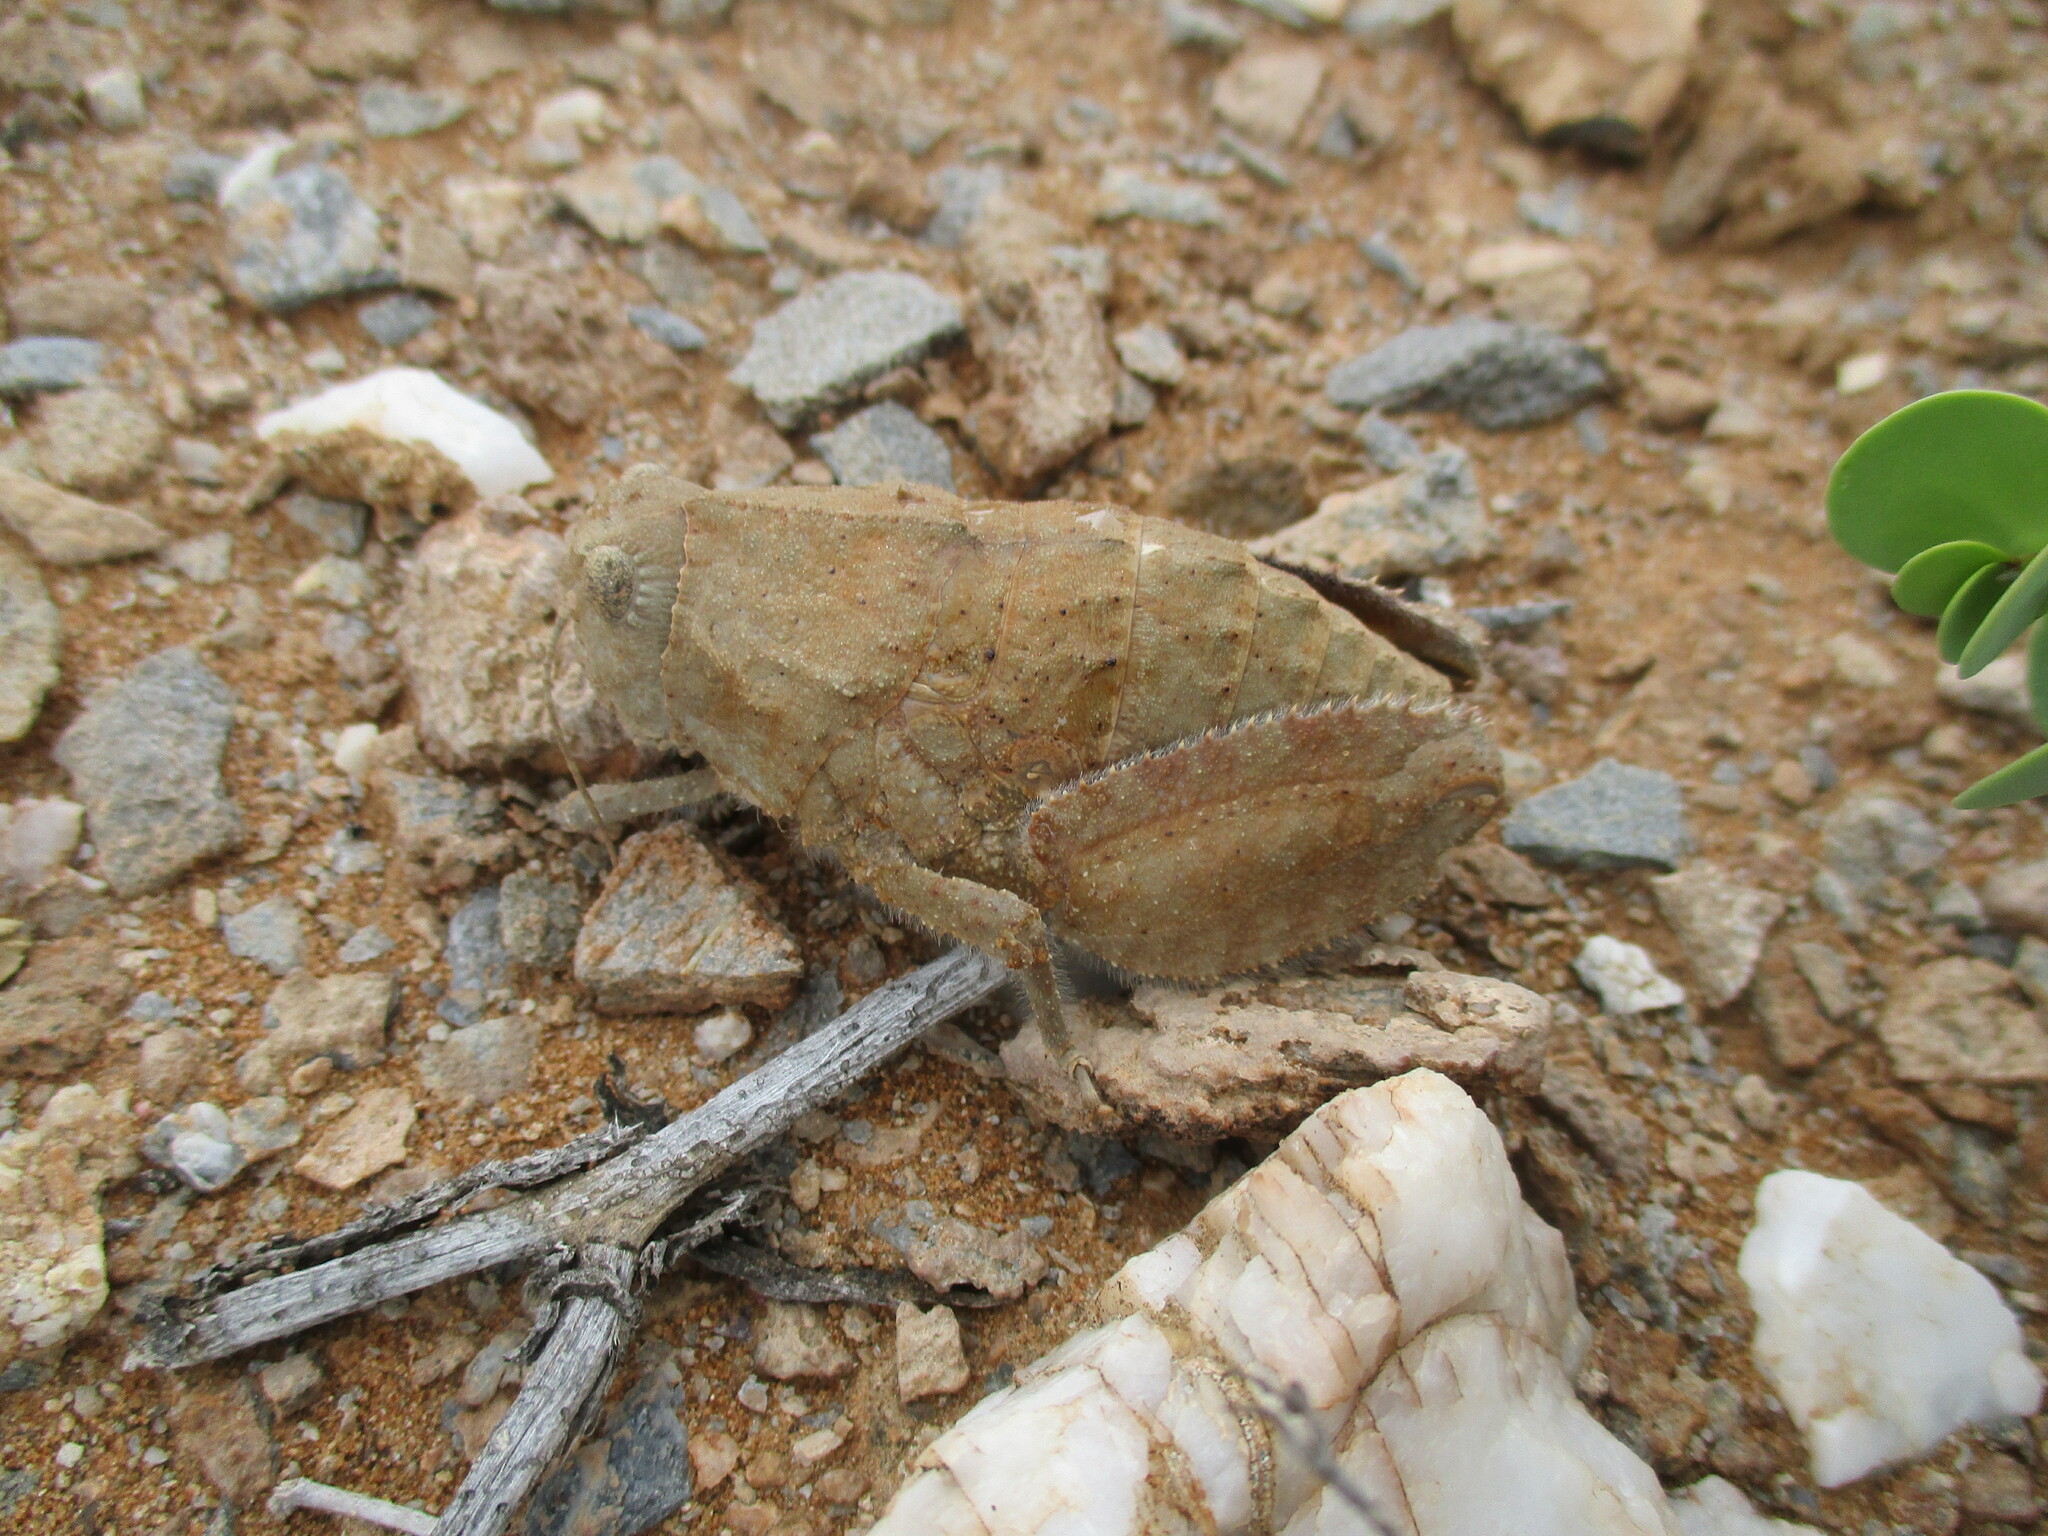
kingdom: Animalia
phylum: Arthropoda
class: Insecta
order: Orthoptera
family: Pamphagidae
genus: Trachypetrella
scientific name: Trachypetrella anderssonii
